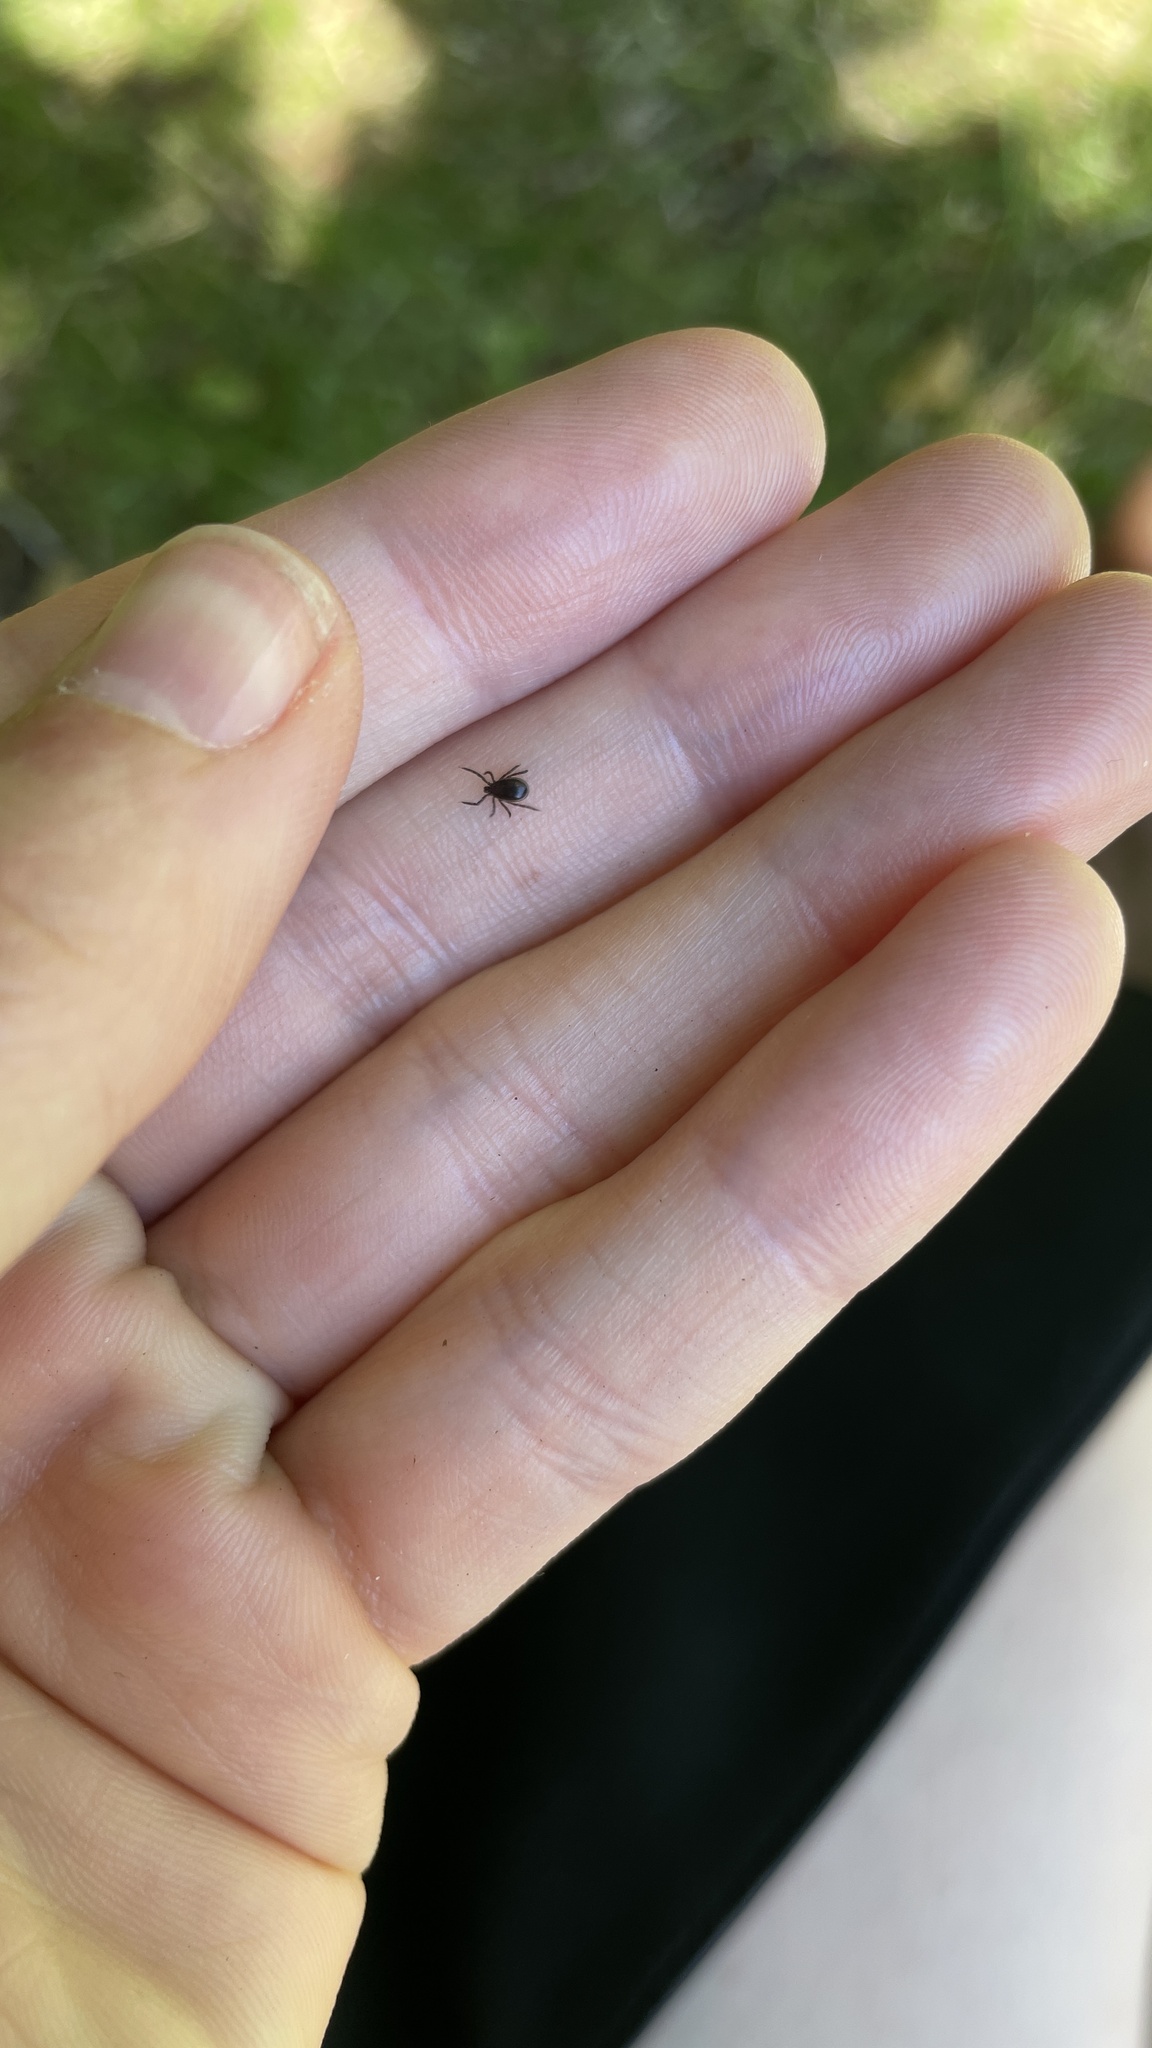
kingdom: Animalia
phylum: Arthropoda
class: Arachnida
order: Ixodida
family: Ixodidae
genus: Ixodes
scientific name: Ixodes ricinus
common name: Castor bean tick
